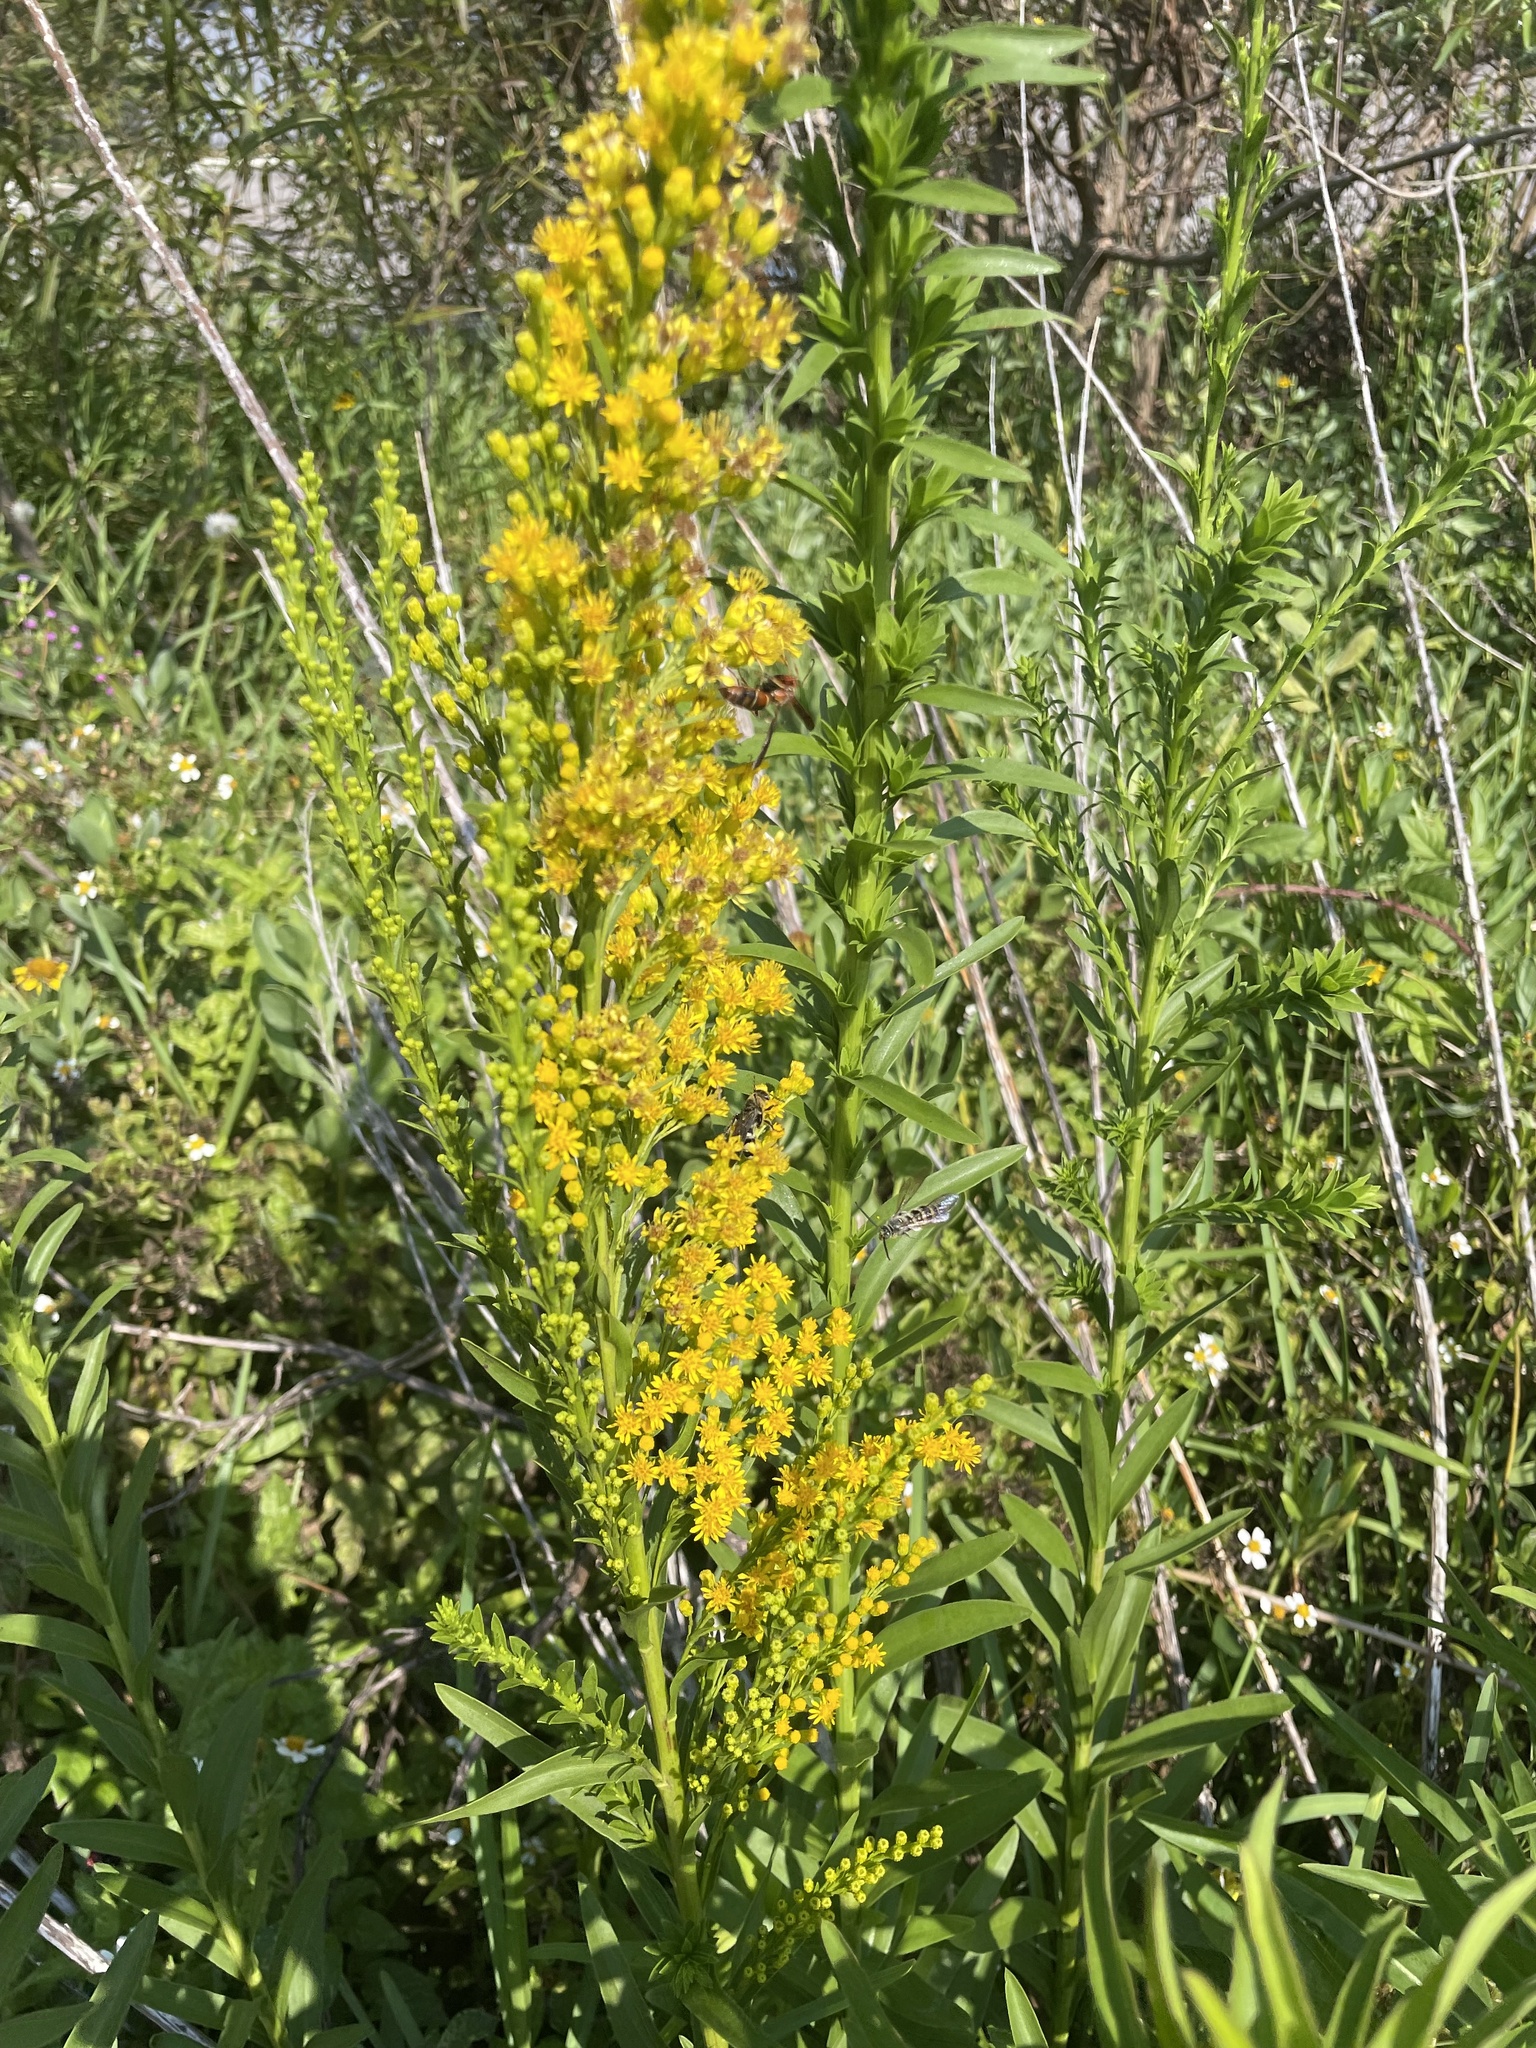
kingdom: Plantae
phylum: Tracheophyta
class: Magnoliopsida
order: Asterales
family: Asteraceae
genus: Solidago
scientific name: Solidago mexicana
